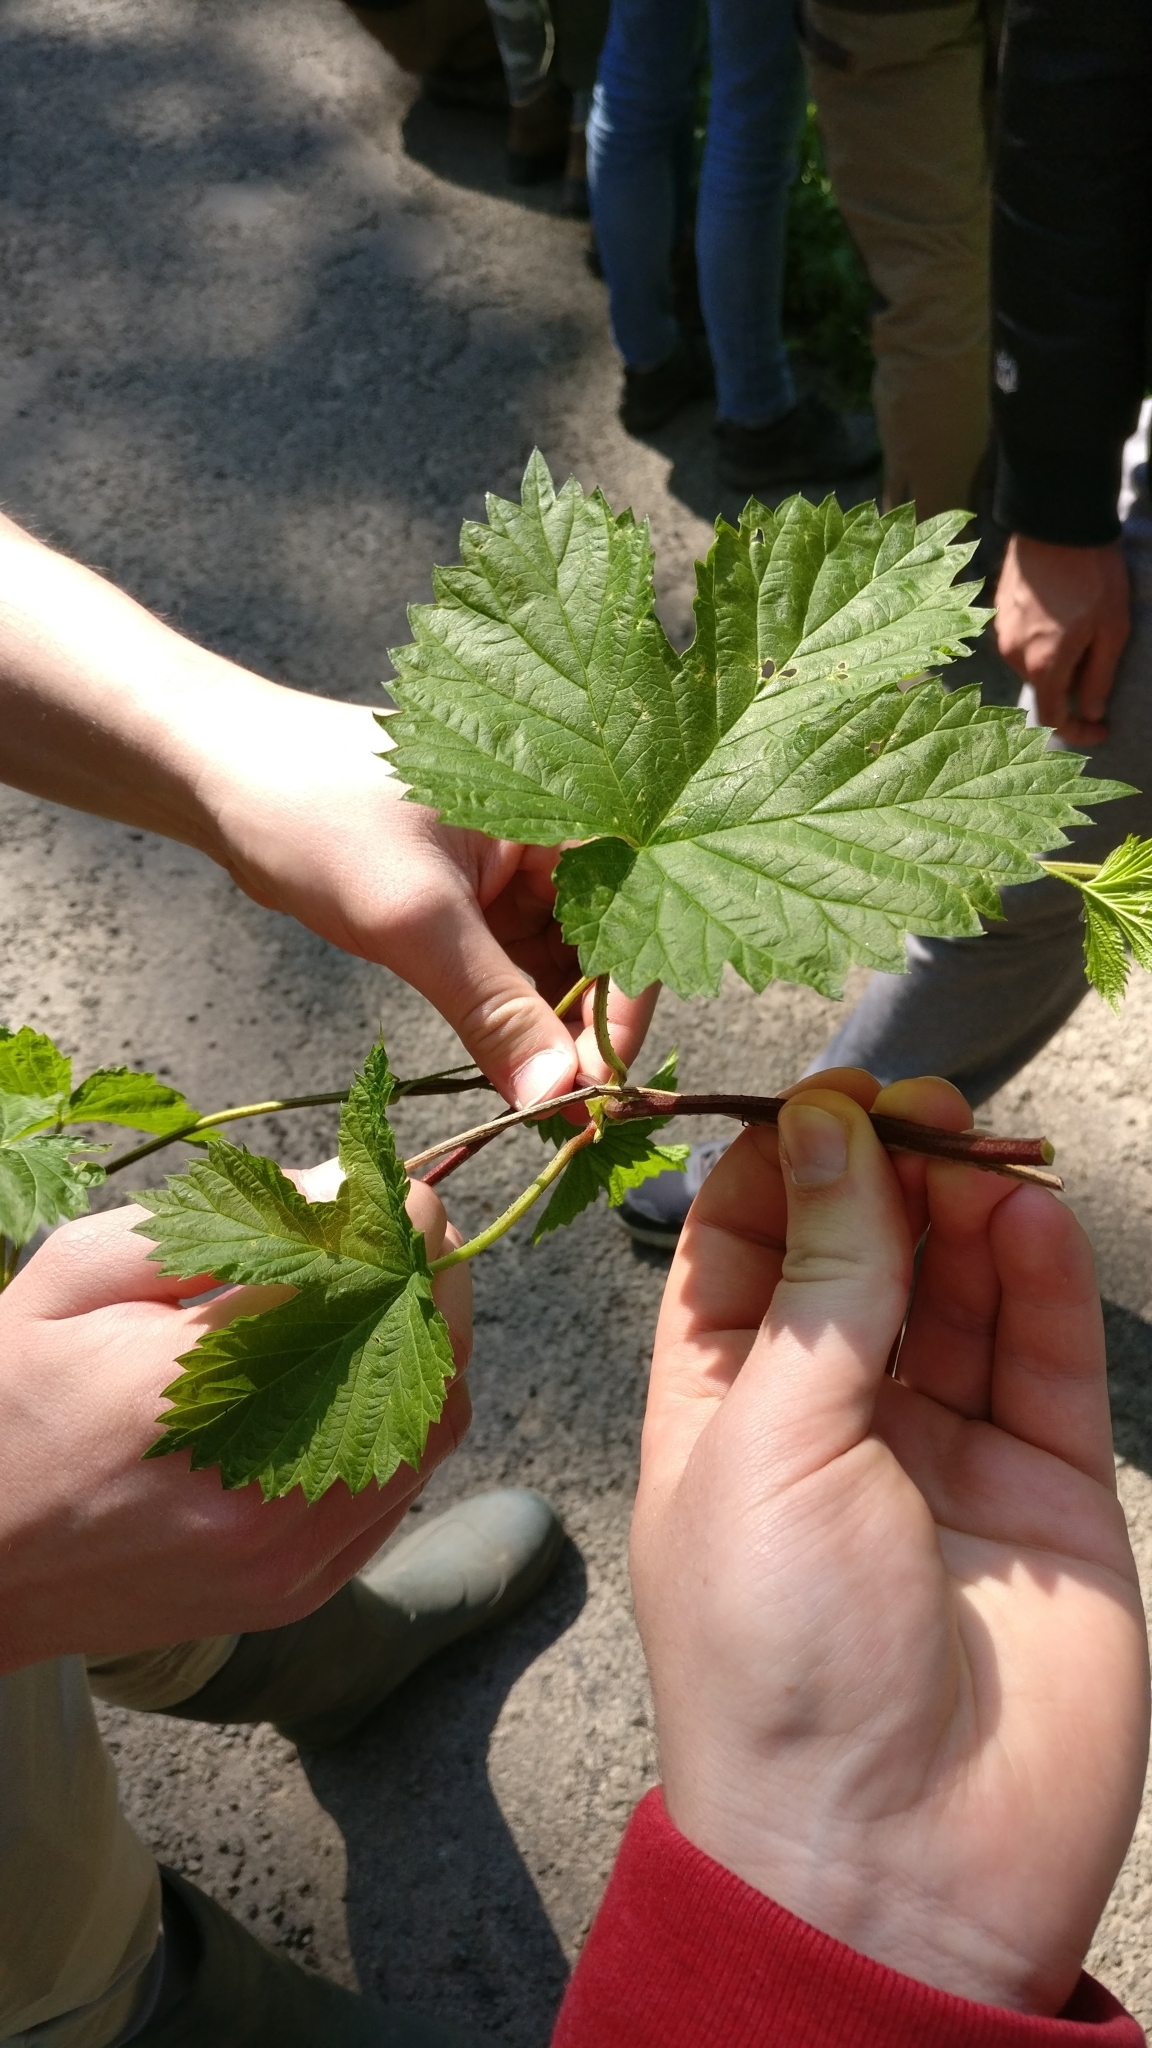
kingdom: Plantae
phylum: Tracheophyta
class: Magnoliopsida
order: Rosales
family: Cannabaceae
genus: Humulus
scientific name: Humulus lupulus
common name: Hop
